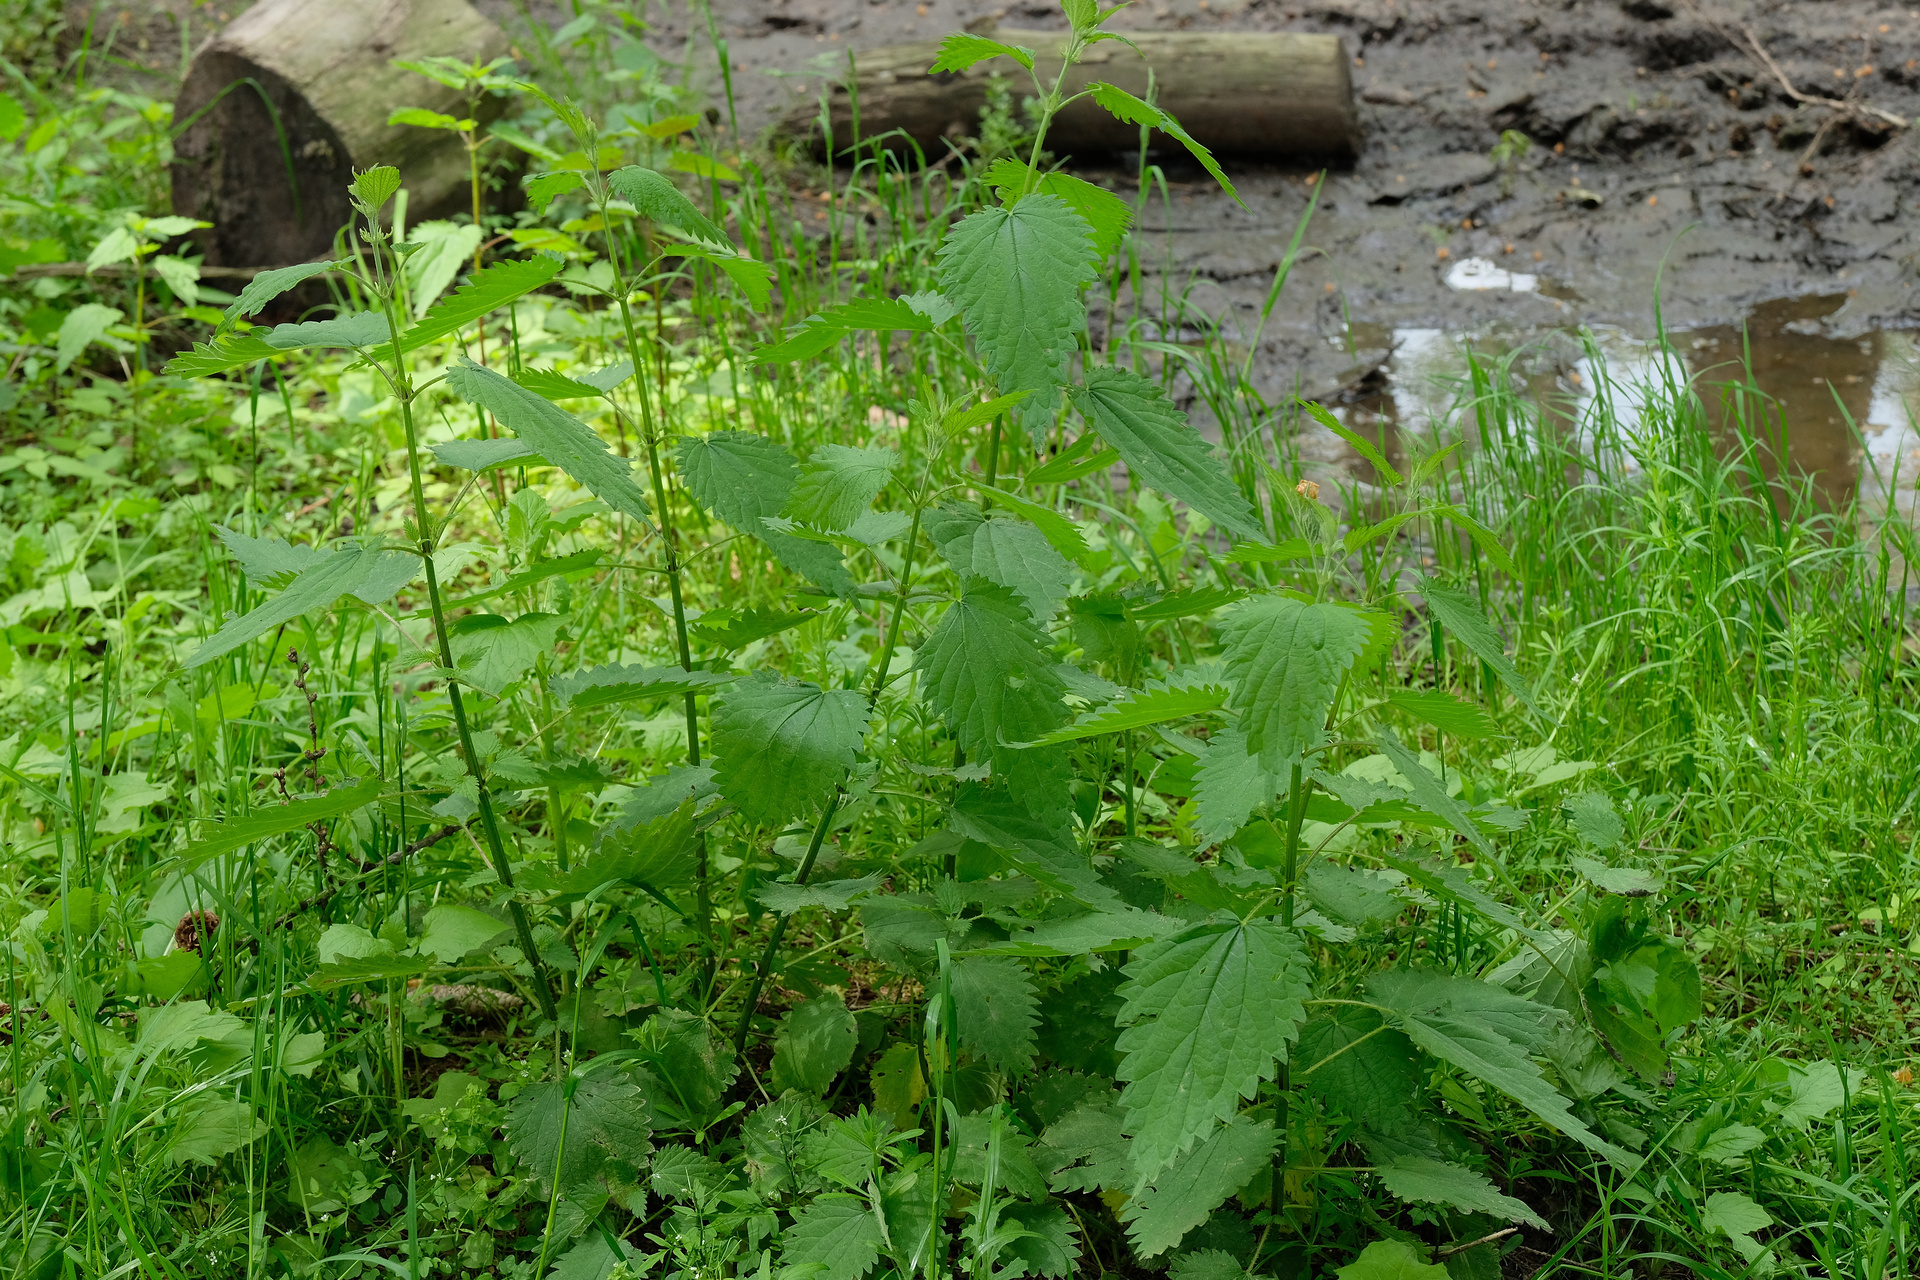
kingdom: Plantae
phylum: Tracheophyta
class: Magnoliopsida
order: Rosales
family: Urticaceae
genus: Urtica
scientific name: Urtica dioica
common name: Common nettle
